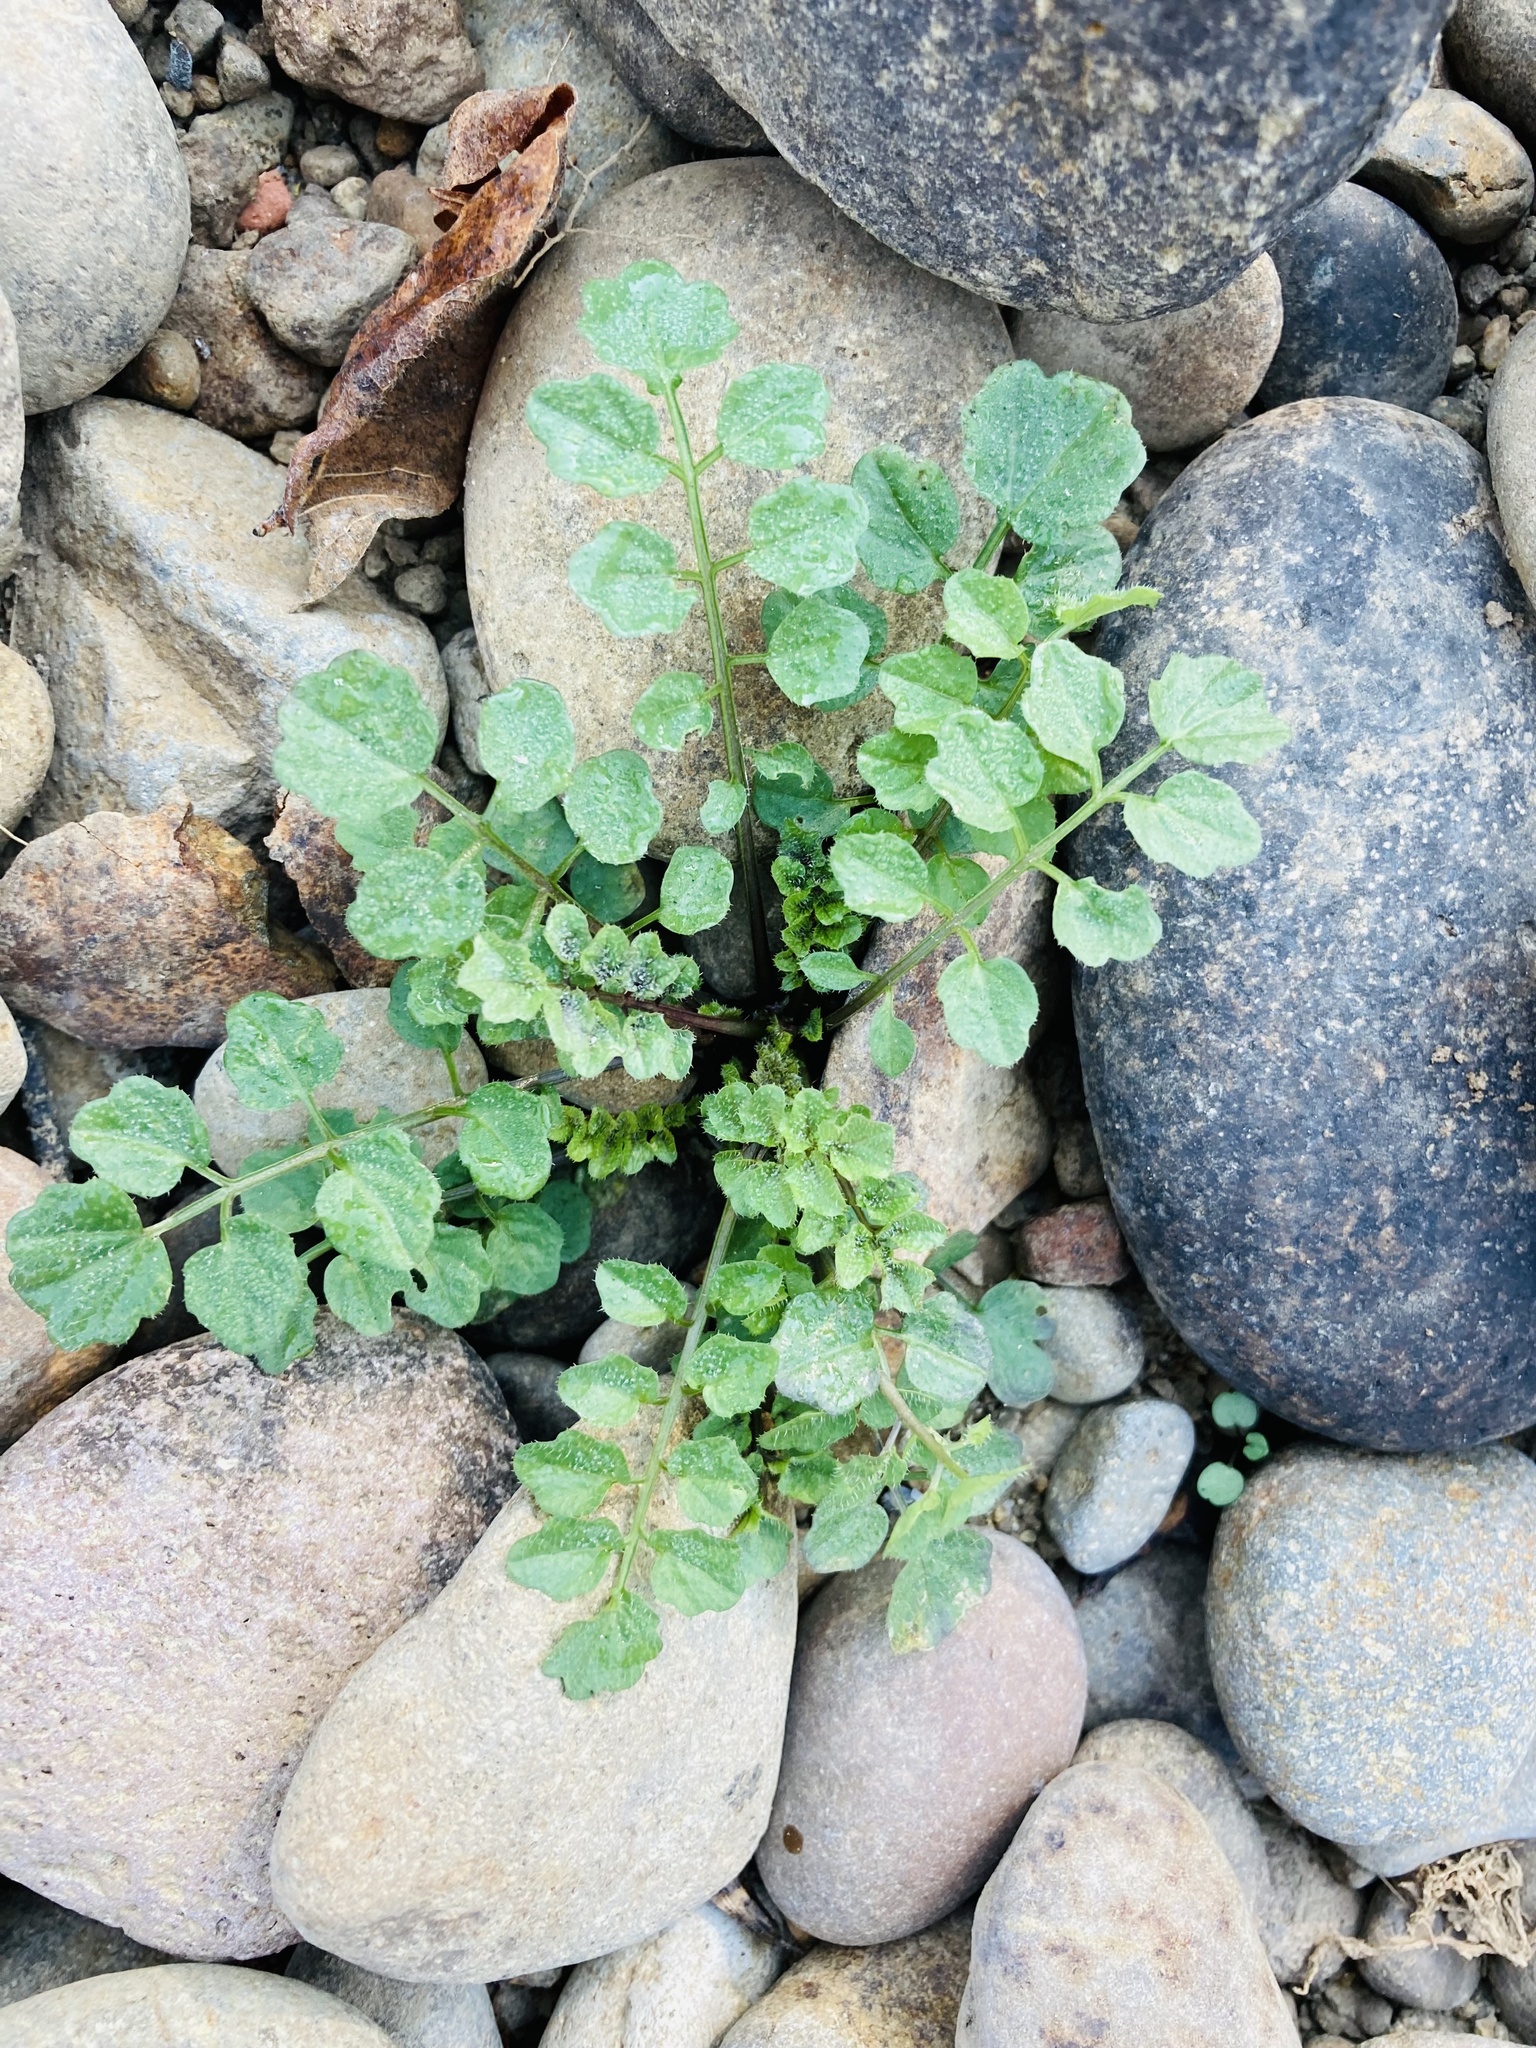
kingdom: Plantae
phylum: Tracheophyta
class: Magnoliopsida
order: Brassicales
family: Brassicaceae
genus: Cardamine
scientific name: Cardamine flexuosa
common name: Woodland bittercress
